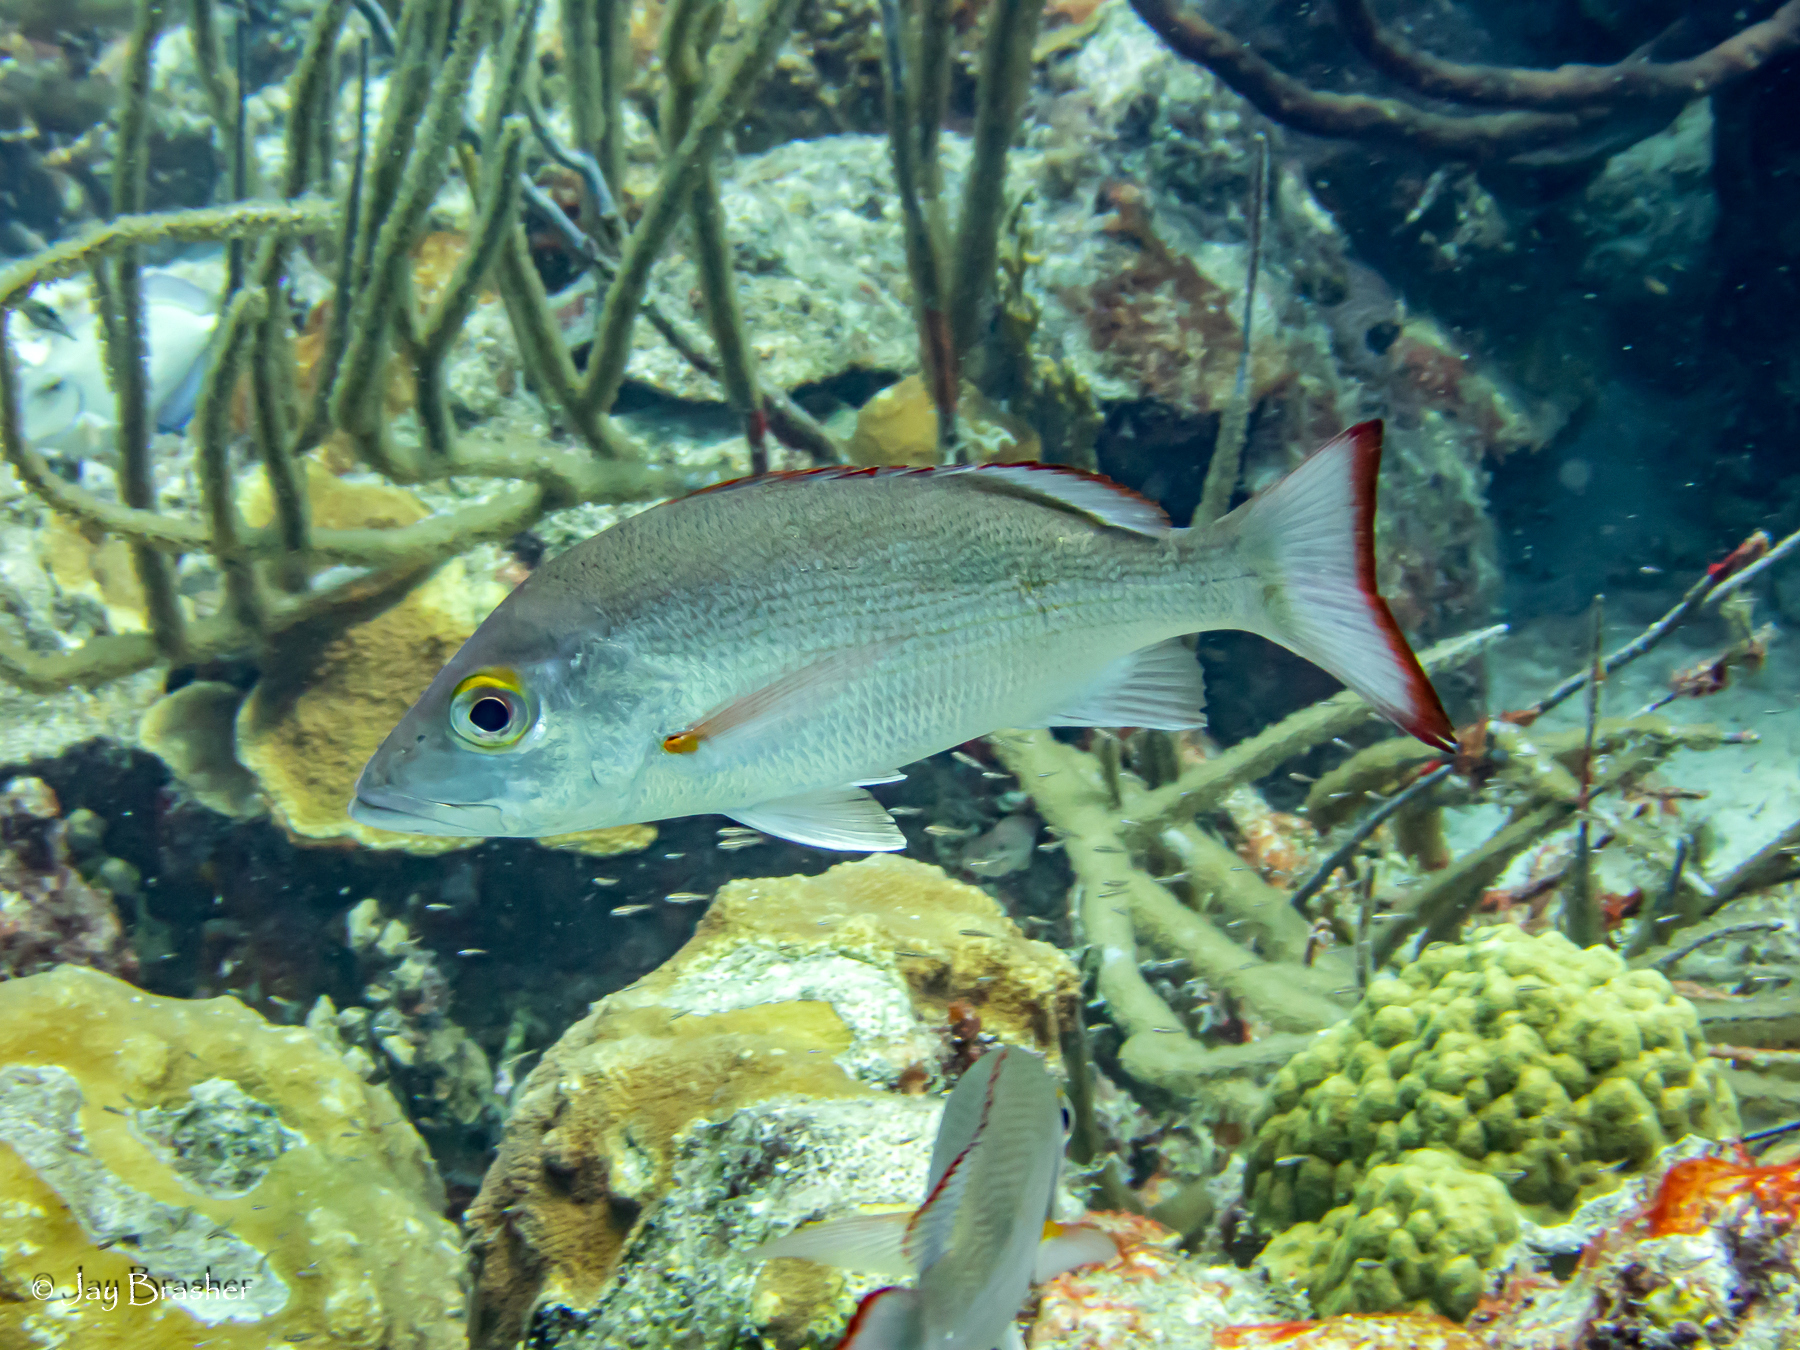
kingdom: Animalia
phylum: Chordata
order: Perciformes
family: Lutjanidae
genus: Lutjanus
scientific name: Lutjanus mahogoni
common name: Spot snapper
